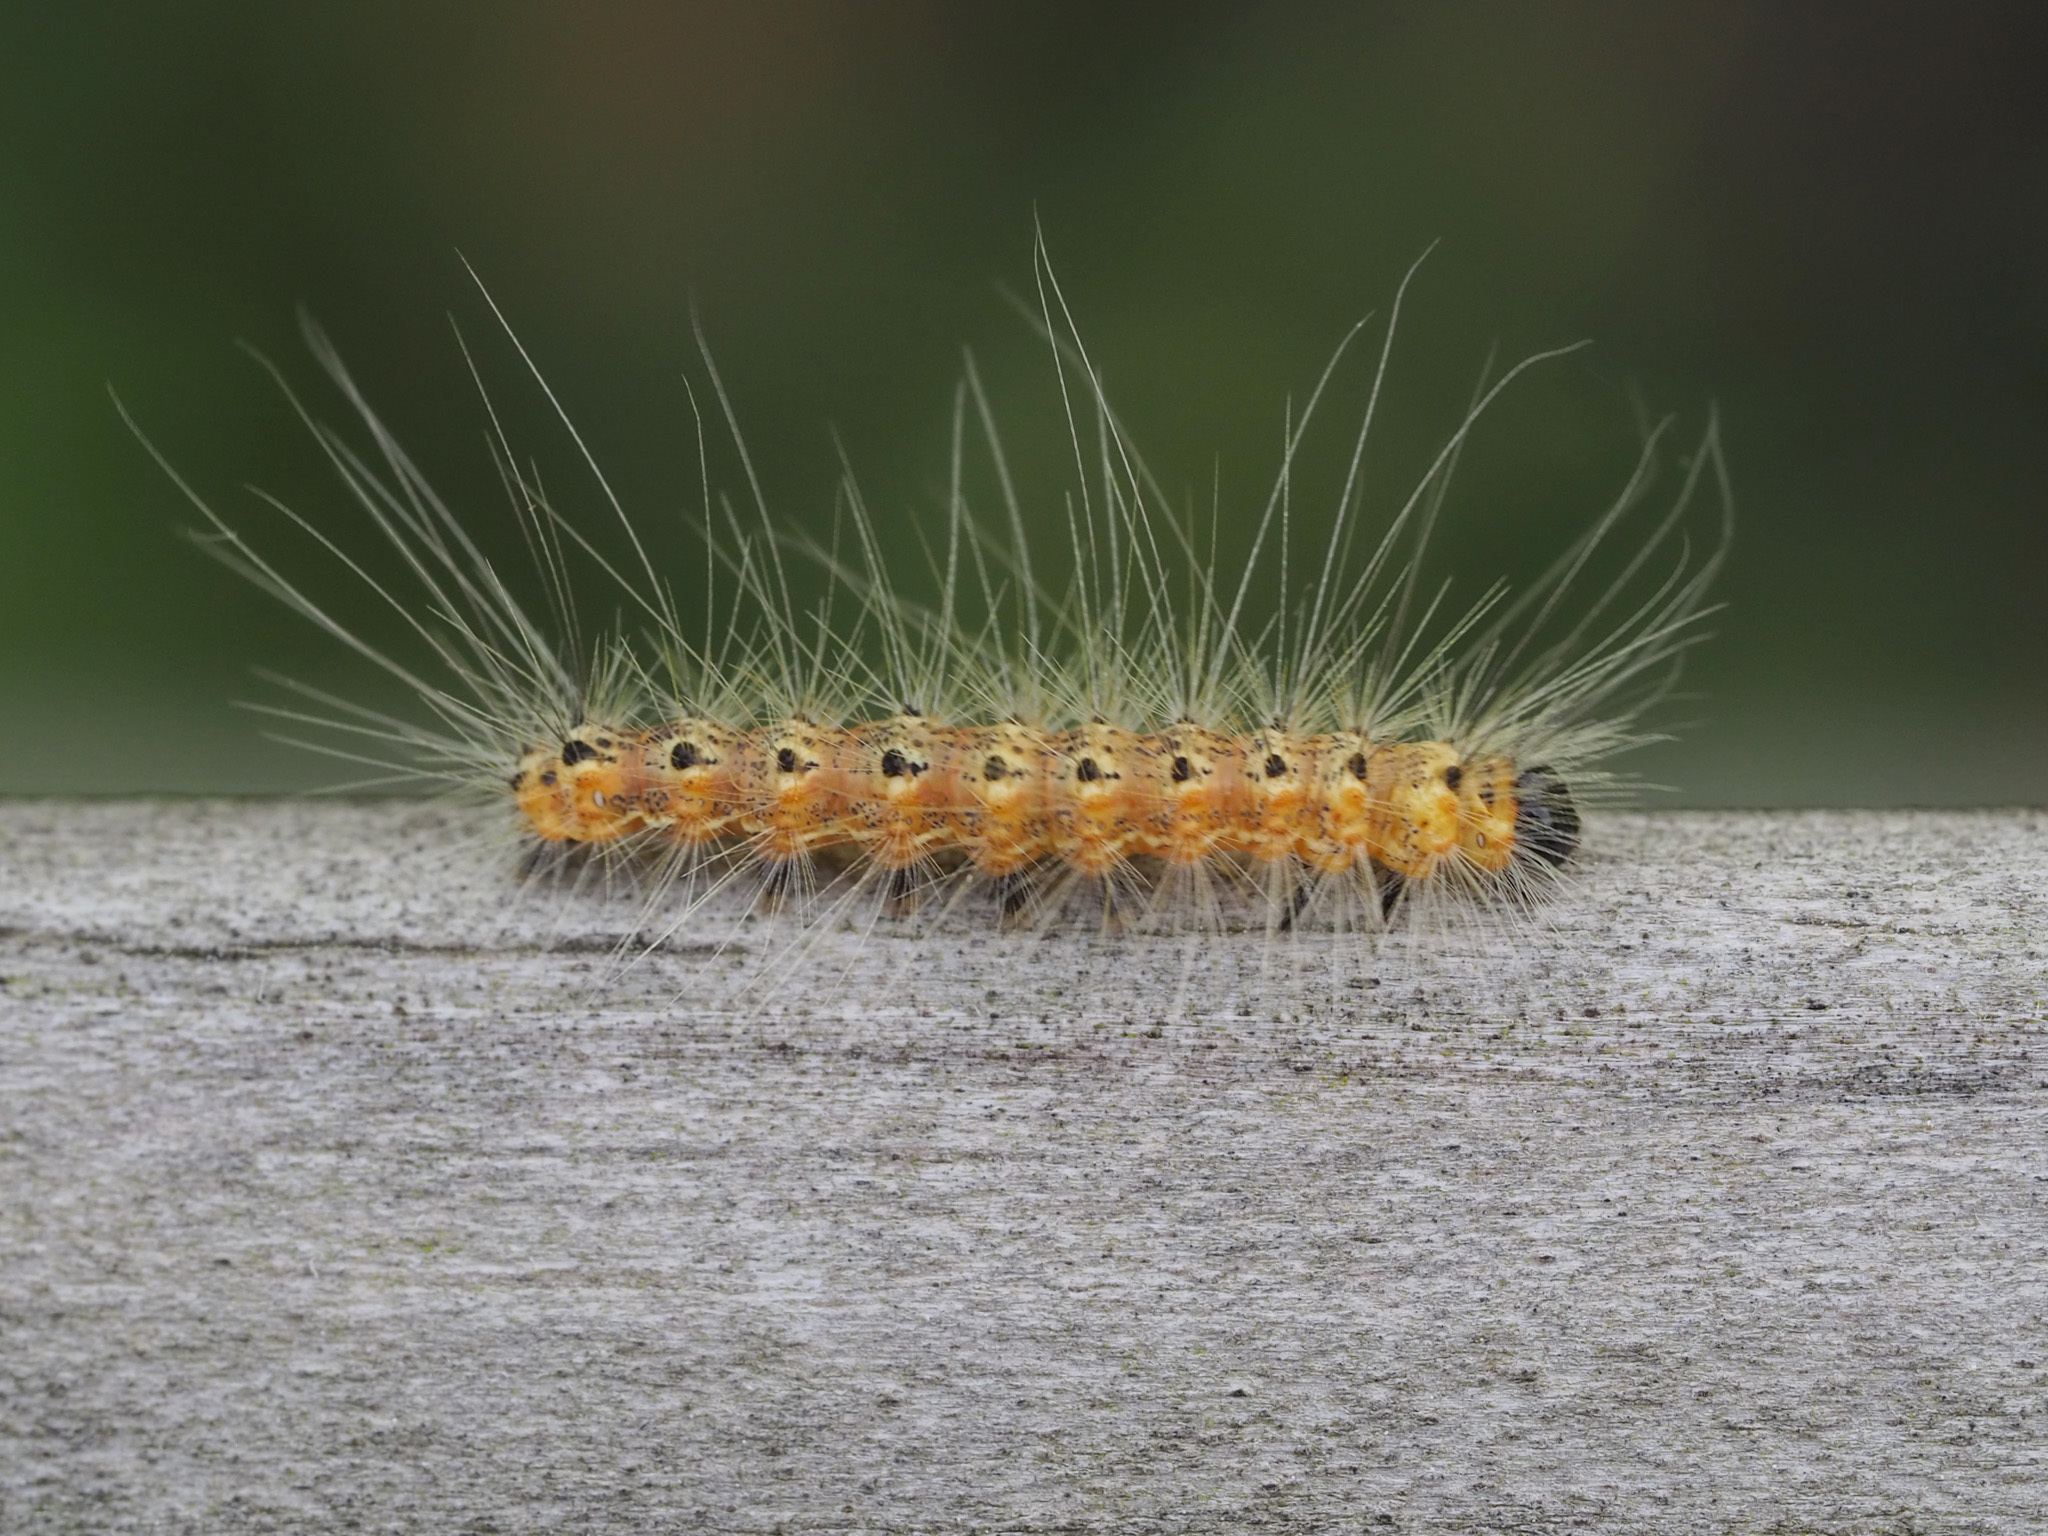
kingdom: Animalia
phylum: Arthropoda
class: Insecta
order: Lepidoptera
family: Erebidae
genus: Hyphantria
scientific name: Hyphantria cunea
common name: American white moth
